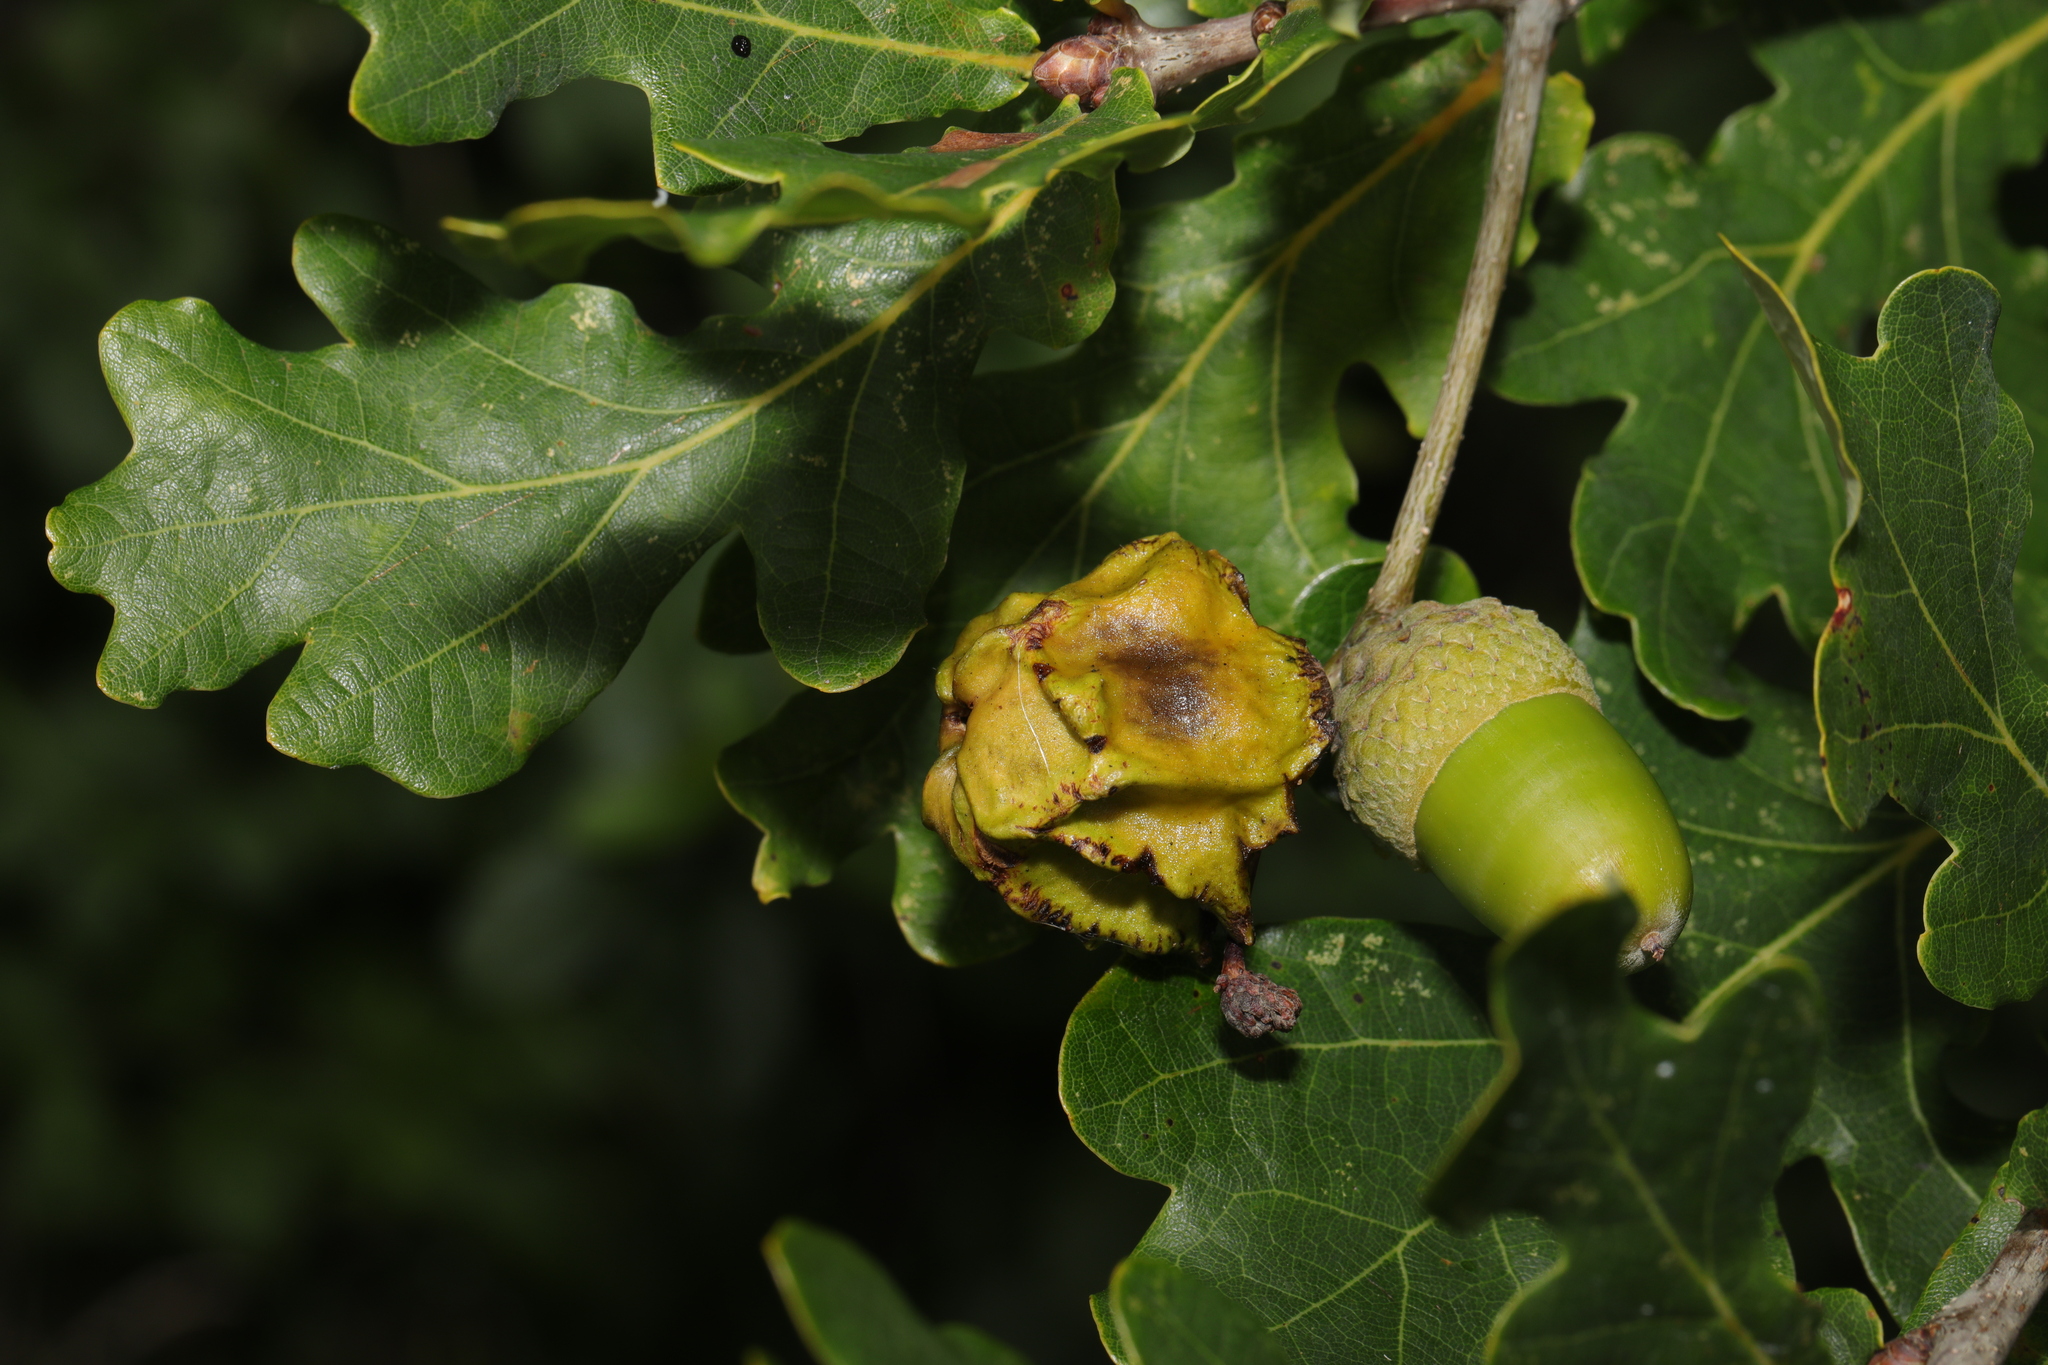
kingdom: Animalia
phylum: Arthropoda
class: Insecta
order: Hymenoptera
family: Cynipidae
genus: Andricus
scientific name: Andricus quercuscalicis
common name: Knopper gall
